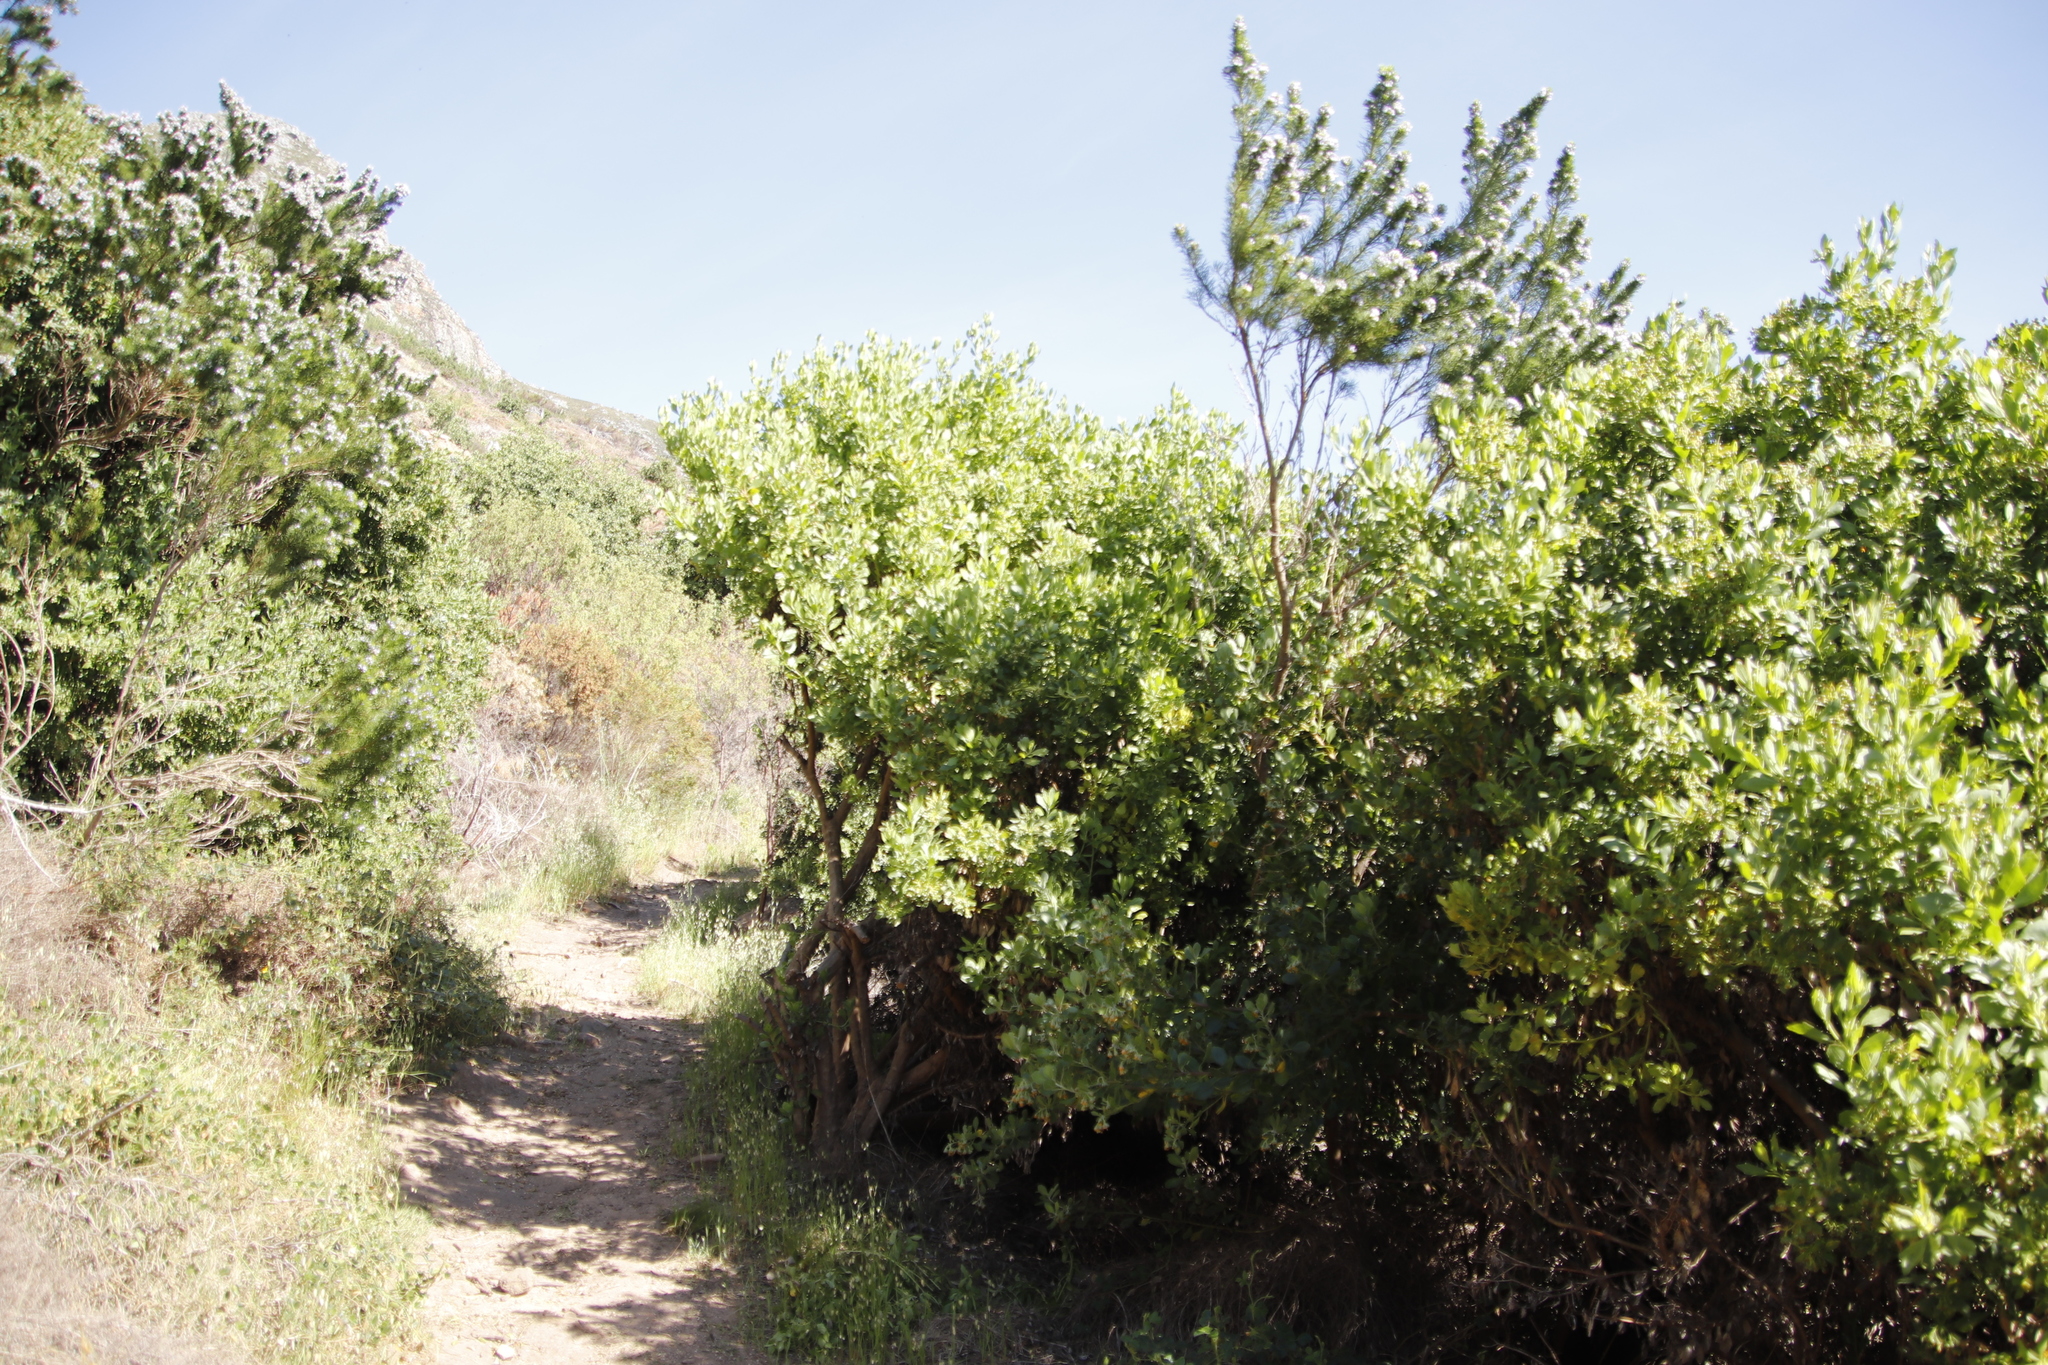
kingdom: Plantae
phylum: Tracheophyta
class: Magnoliopsida
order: Asterales
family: Asteraceae
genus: Osteospermum
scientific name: Osteospermum moniliferum
